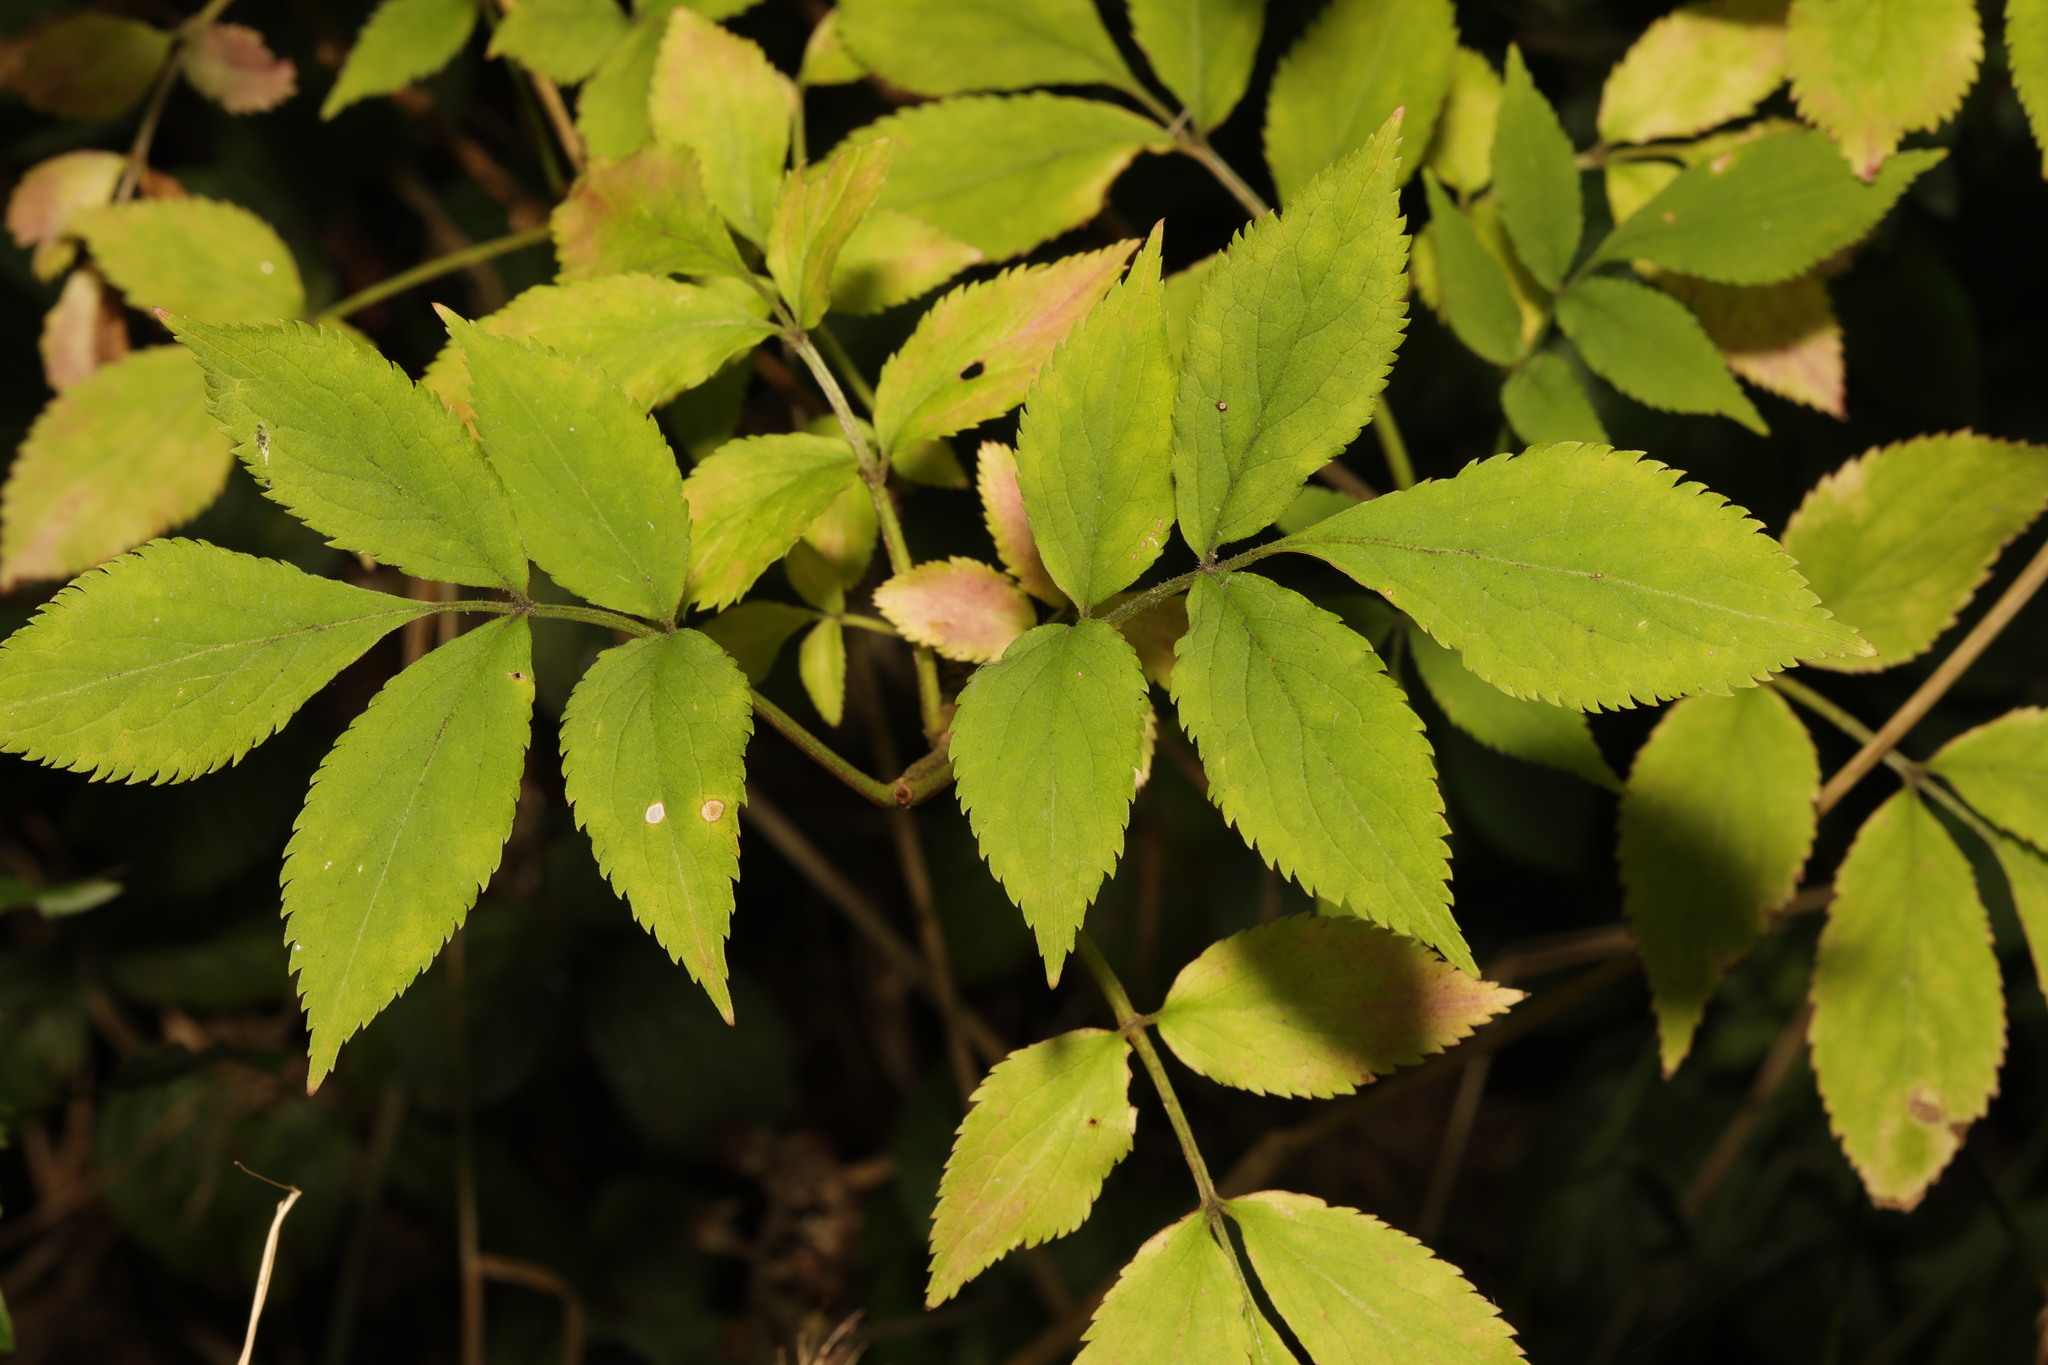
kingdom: Plantae
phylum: Tracheophyta
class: Magnoliopsida
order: Dipsacales
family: Viburnaceae
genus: Sambucus
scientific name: Sambucus nigra
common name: Elder
